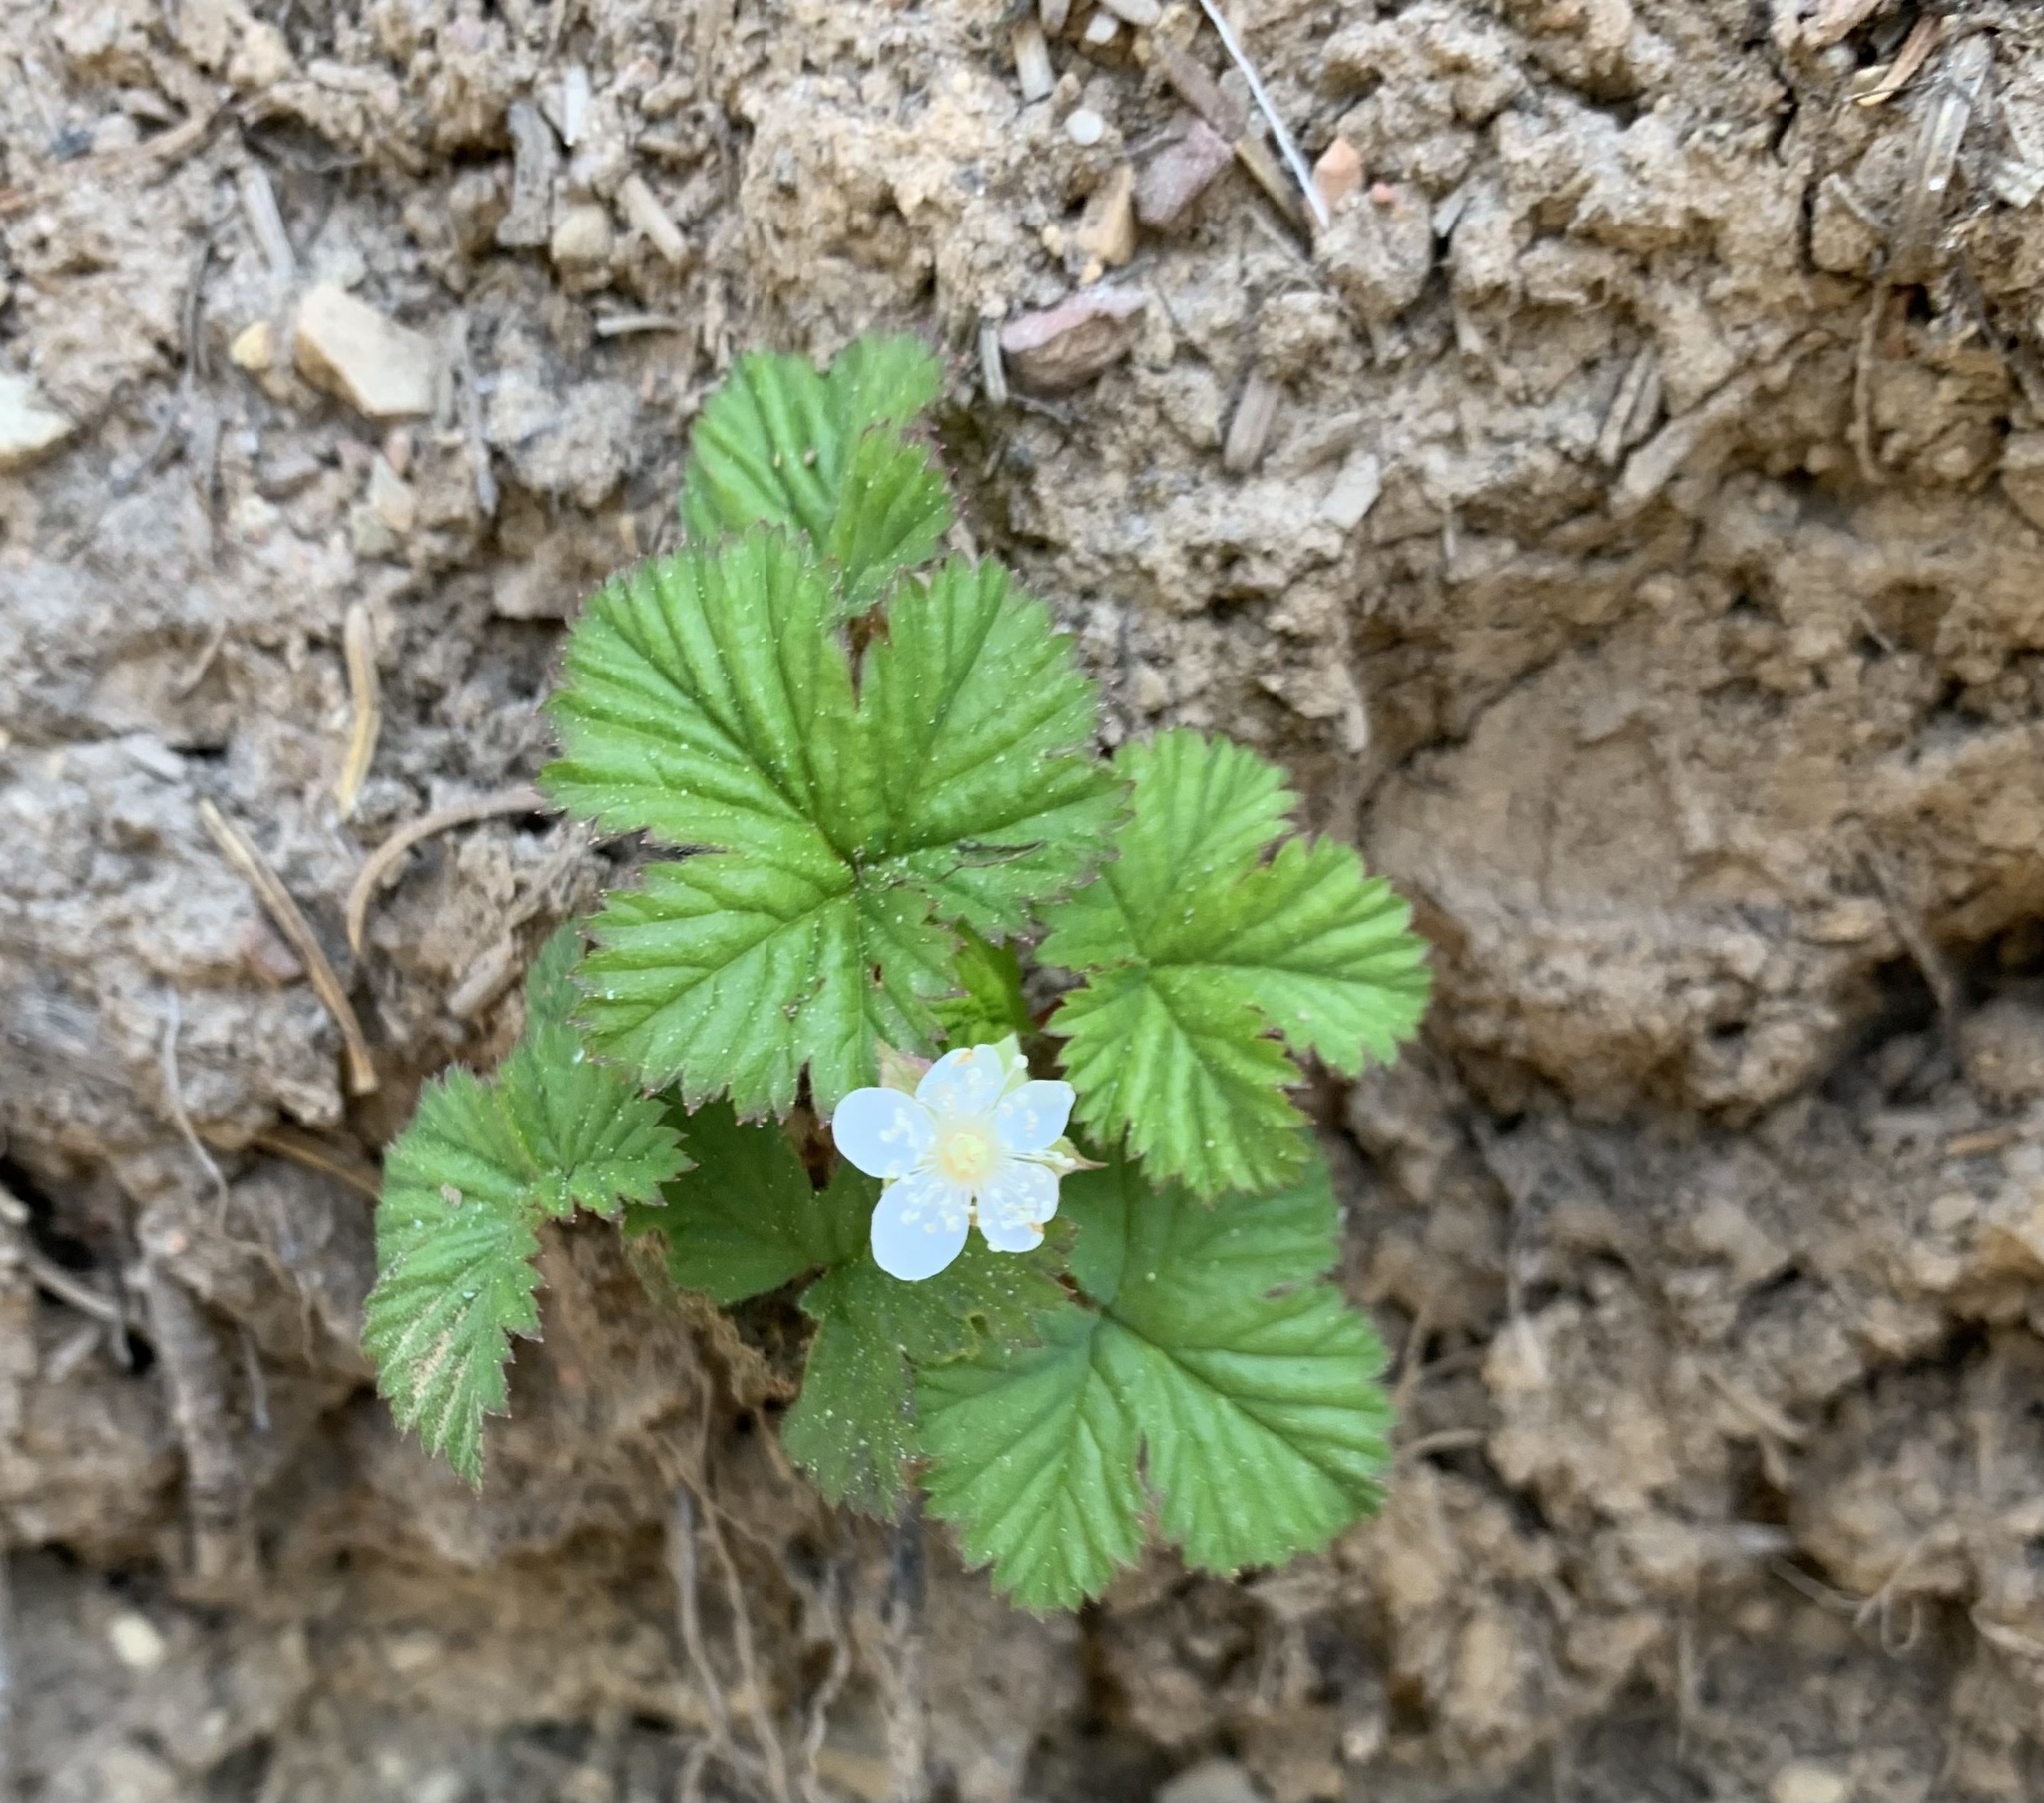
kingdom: Plantae
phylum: Tracheophyta
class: Magnoliopsida
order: Rosales
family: Rosaceae
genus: Rubus
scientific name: Rubus lasiococcus
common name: Dwarf bramble
